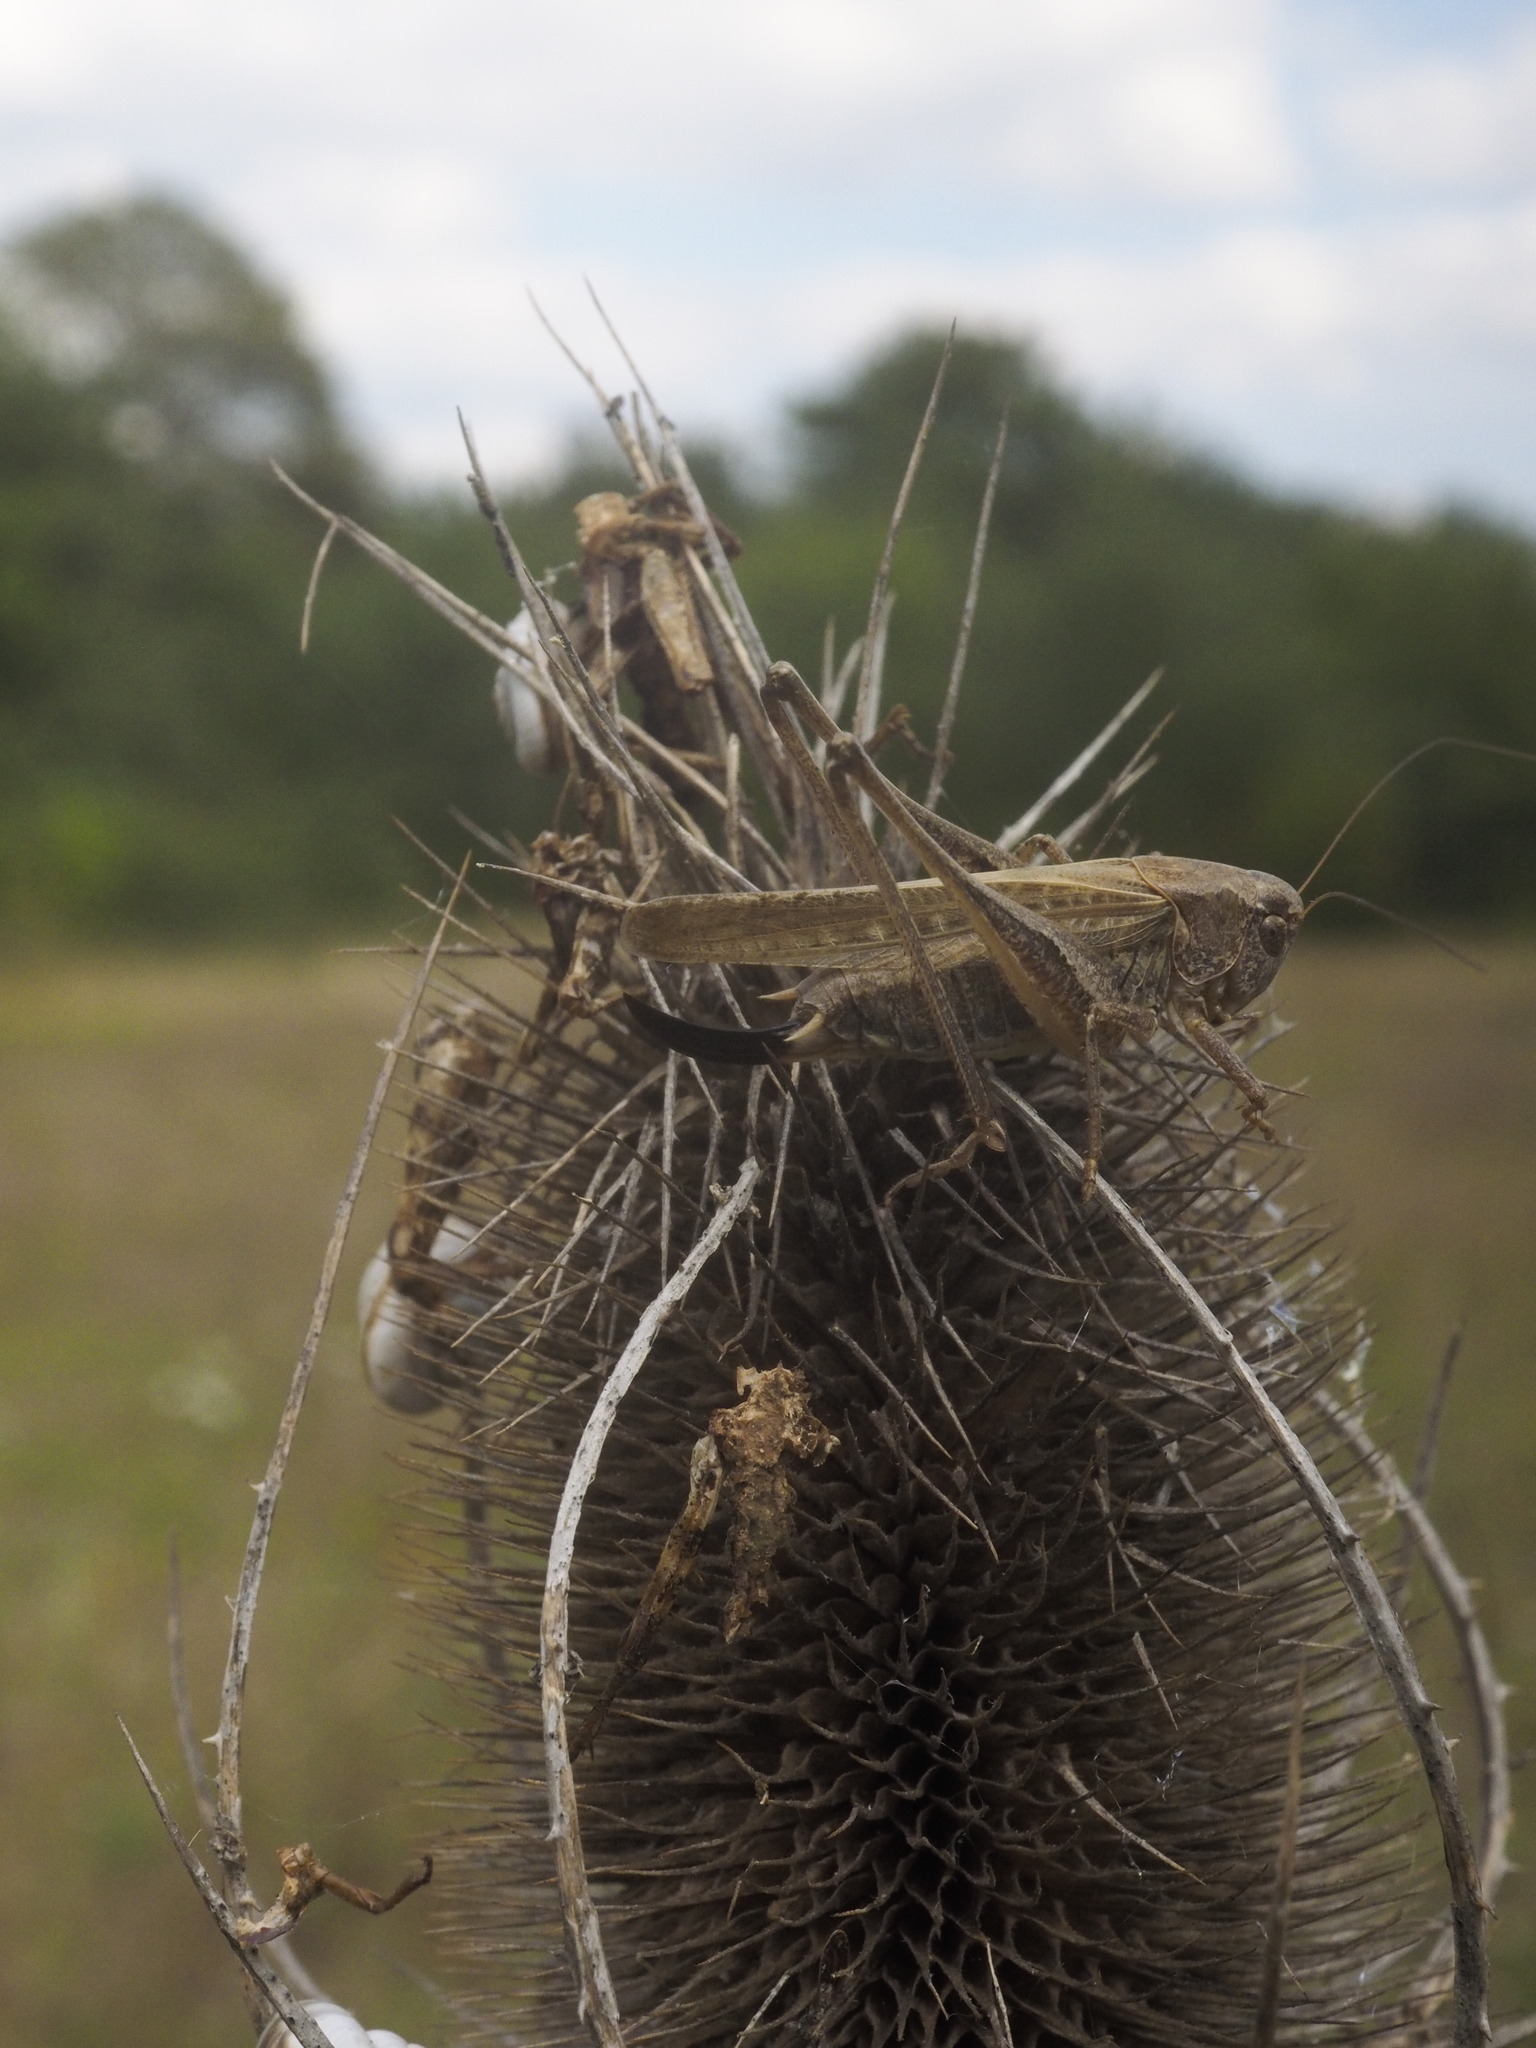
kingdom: Animalia
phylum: Arthropoda
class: Insecta
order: Orthoptera
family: Tettigoniidae
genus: Platycleis
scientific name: Platycleis albopunctata
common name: Grey bush-cricket
